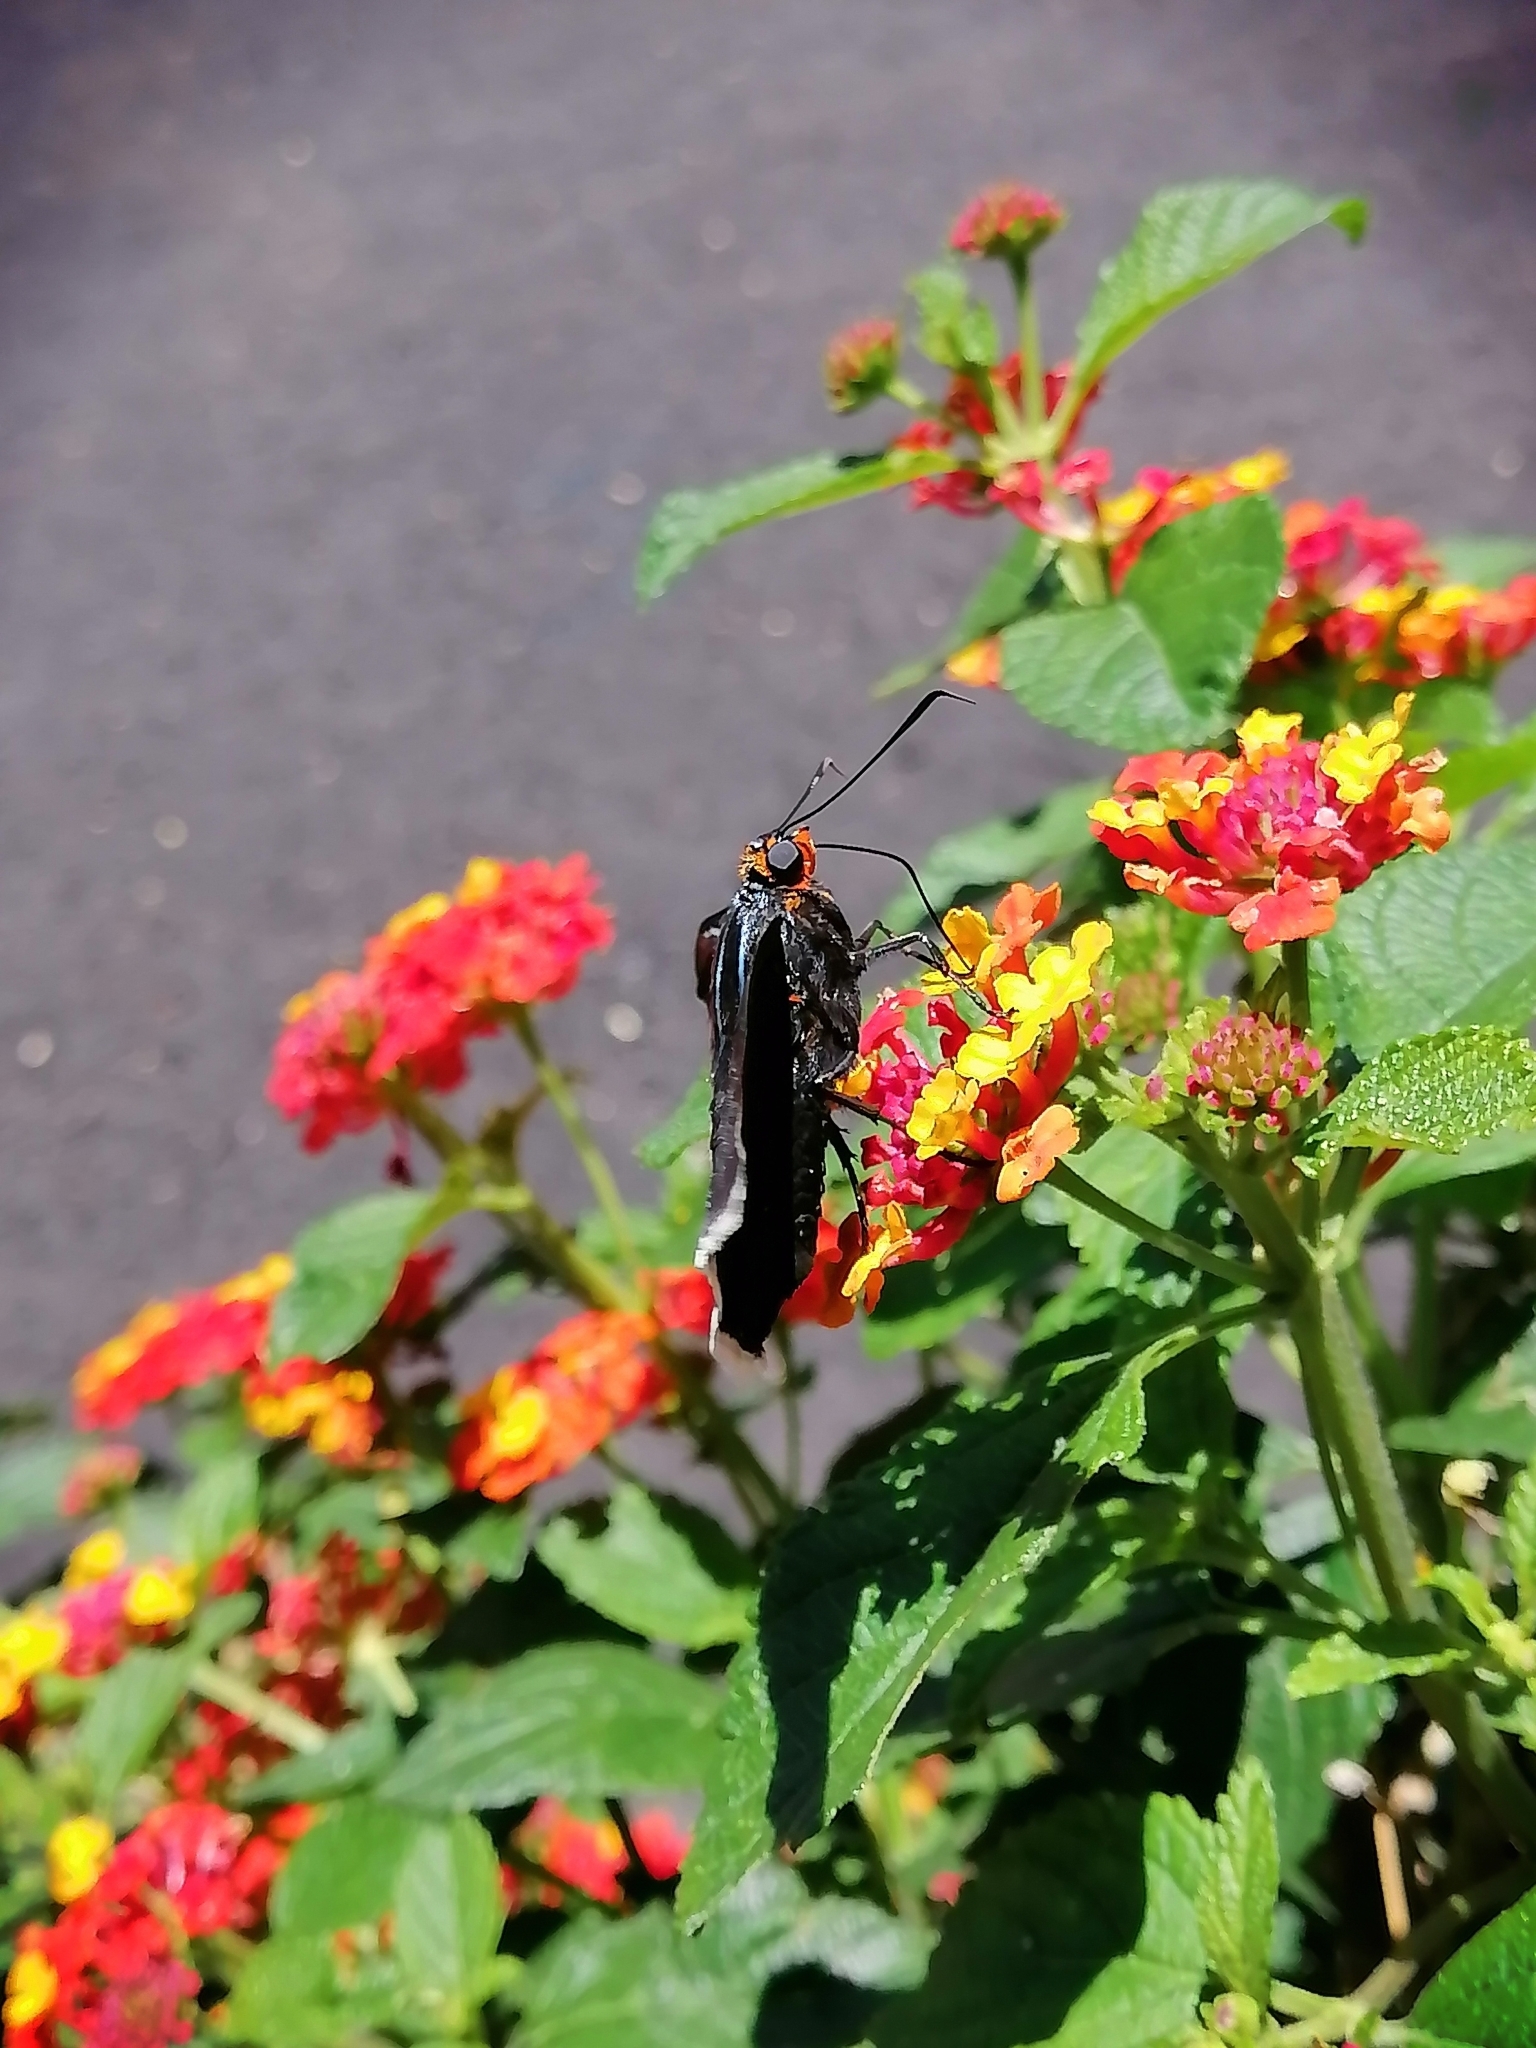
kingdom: Animalia
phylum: Arthropoda
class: Insecta
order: Lepidoptera
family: Hesperiidae
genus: Phocides
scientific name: Phocides lilea
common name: Guava skipper
